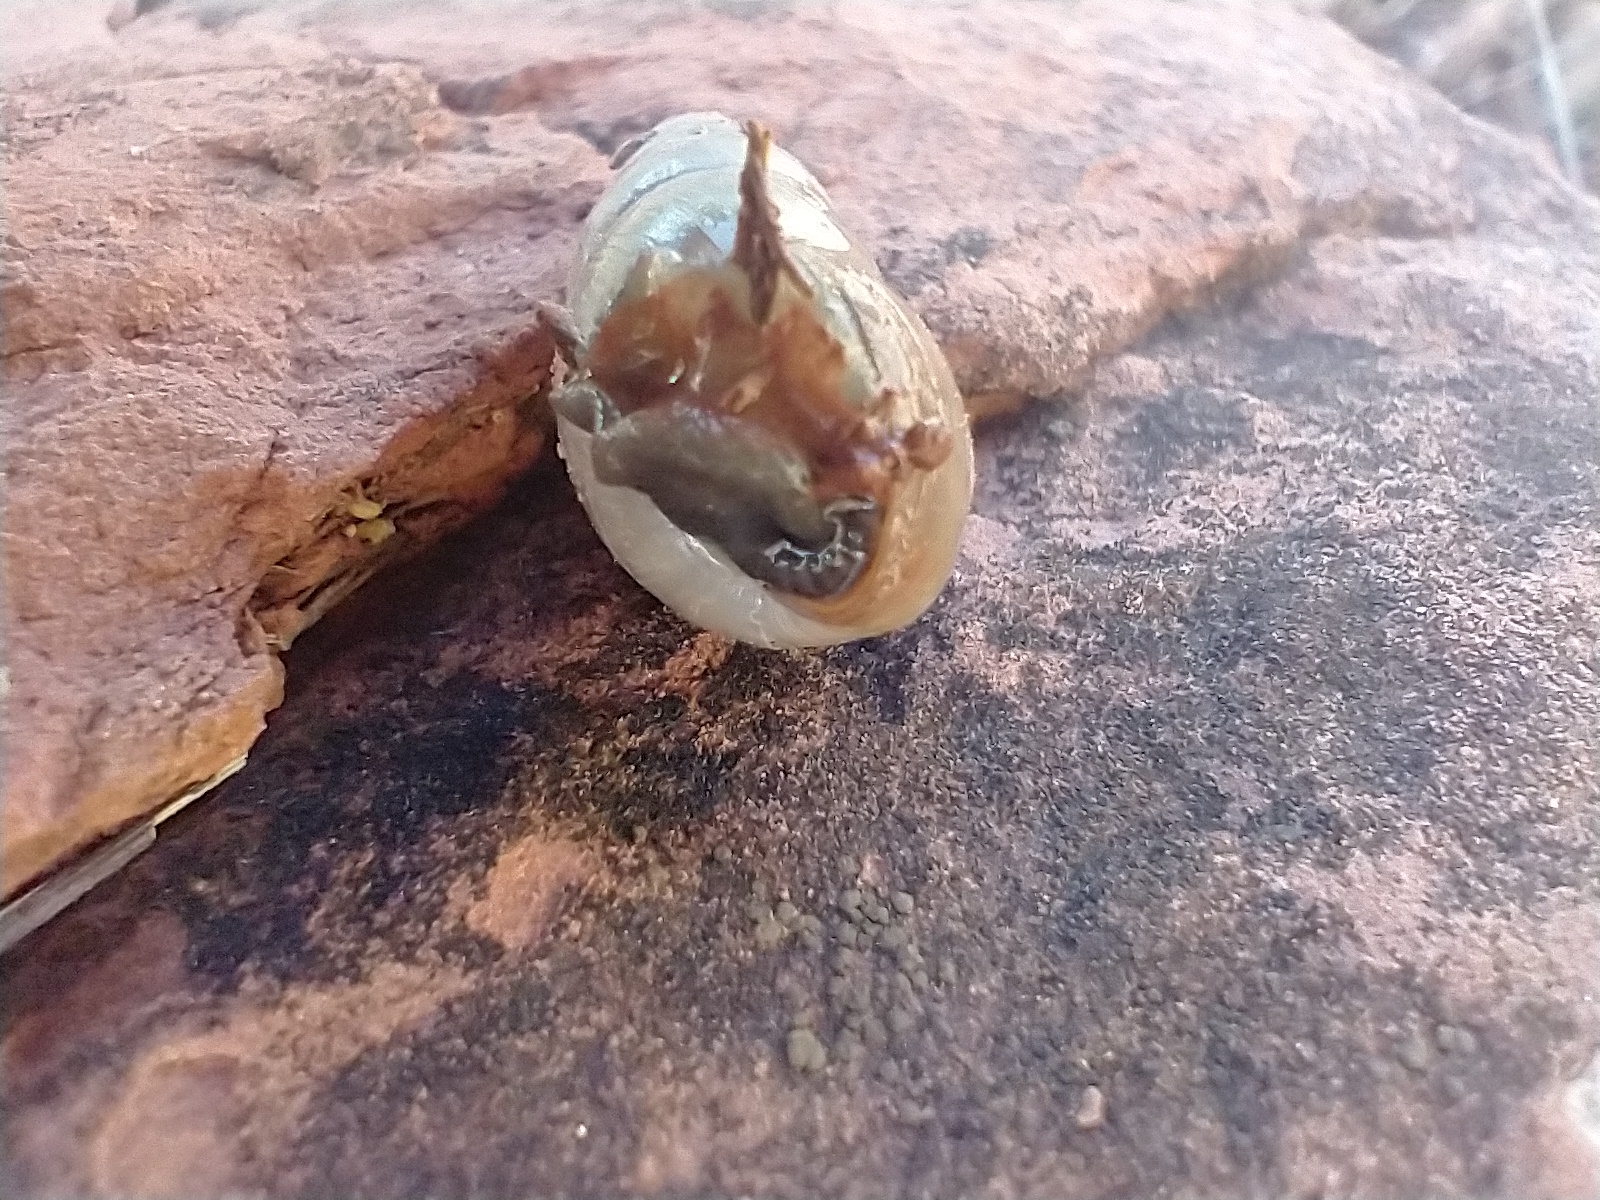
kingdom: Animalia
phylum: Mollusca
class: Gastropoda
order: Stylommatophora
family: Achatinidae
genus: Rumina
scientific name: Rumina decollata
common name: Decollate snail
